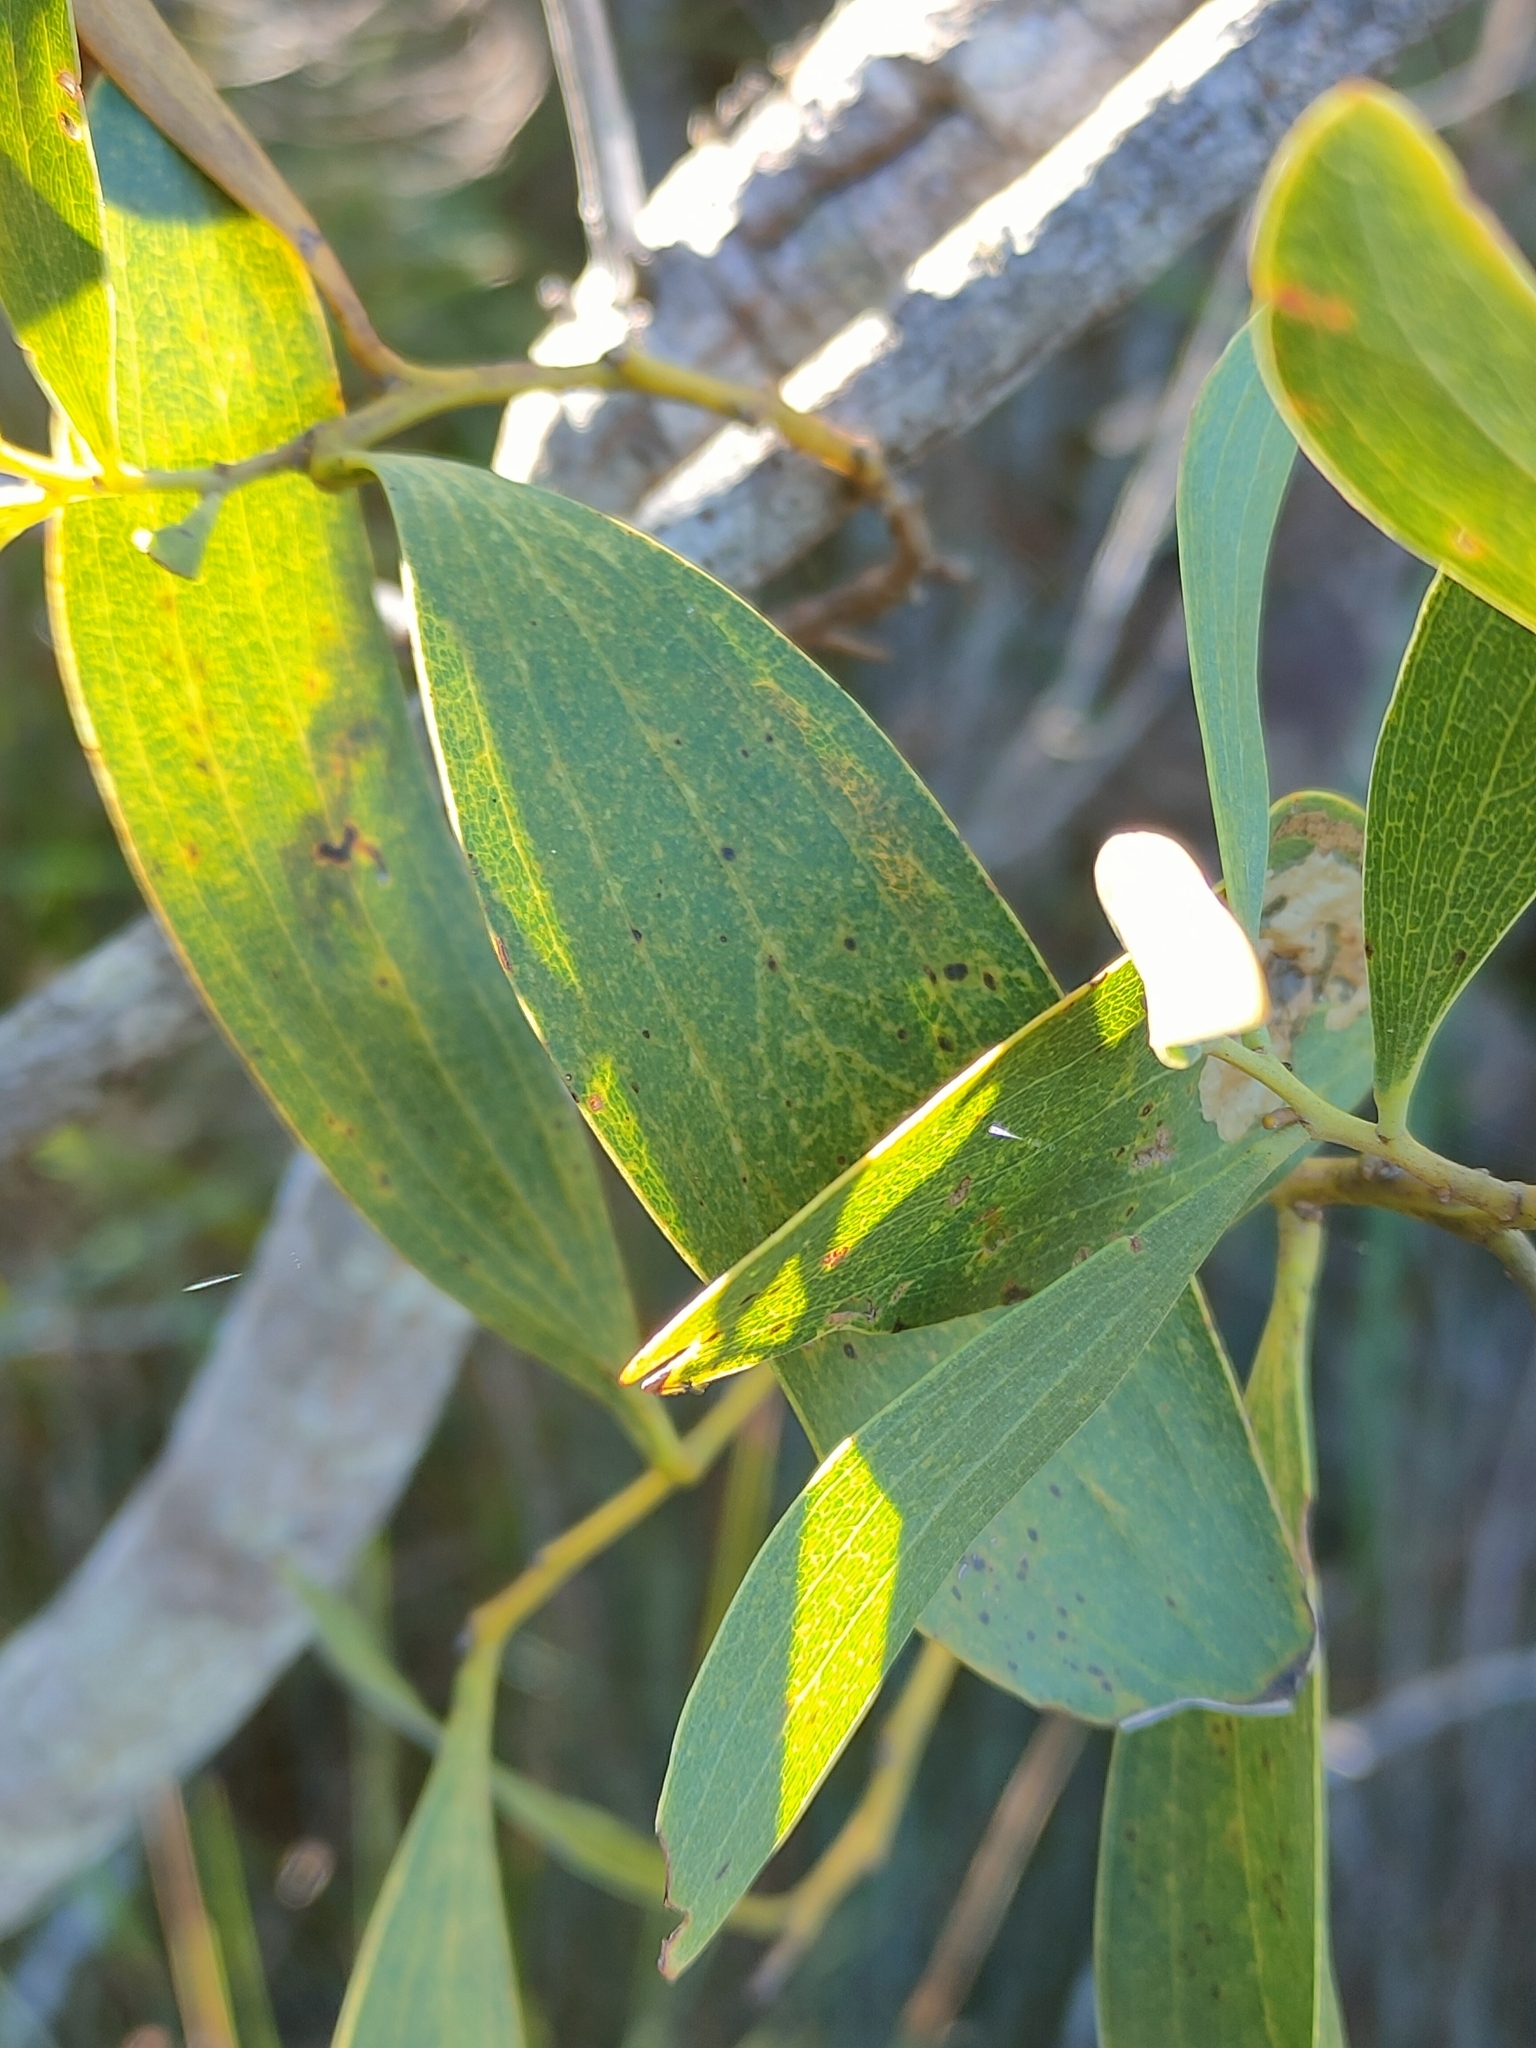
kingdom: Plantae
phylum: Tracheophyta
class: Magnoliopsida
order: Fabales
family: Fabaceae
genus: Acacia
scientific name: Acacia melanoxylon
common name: Blackwood
